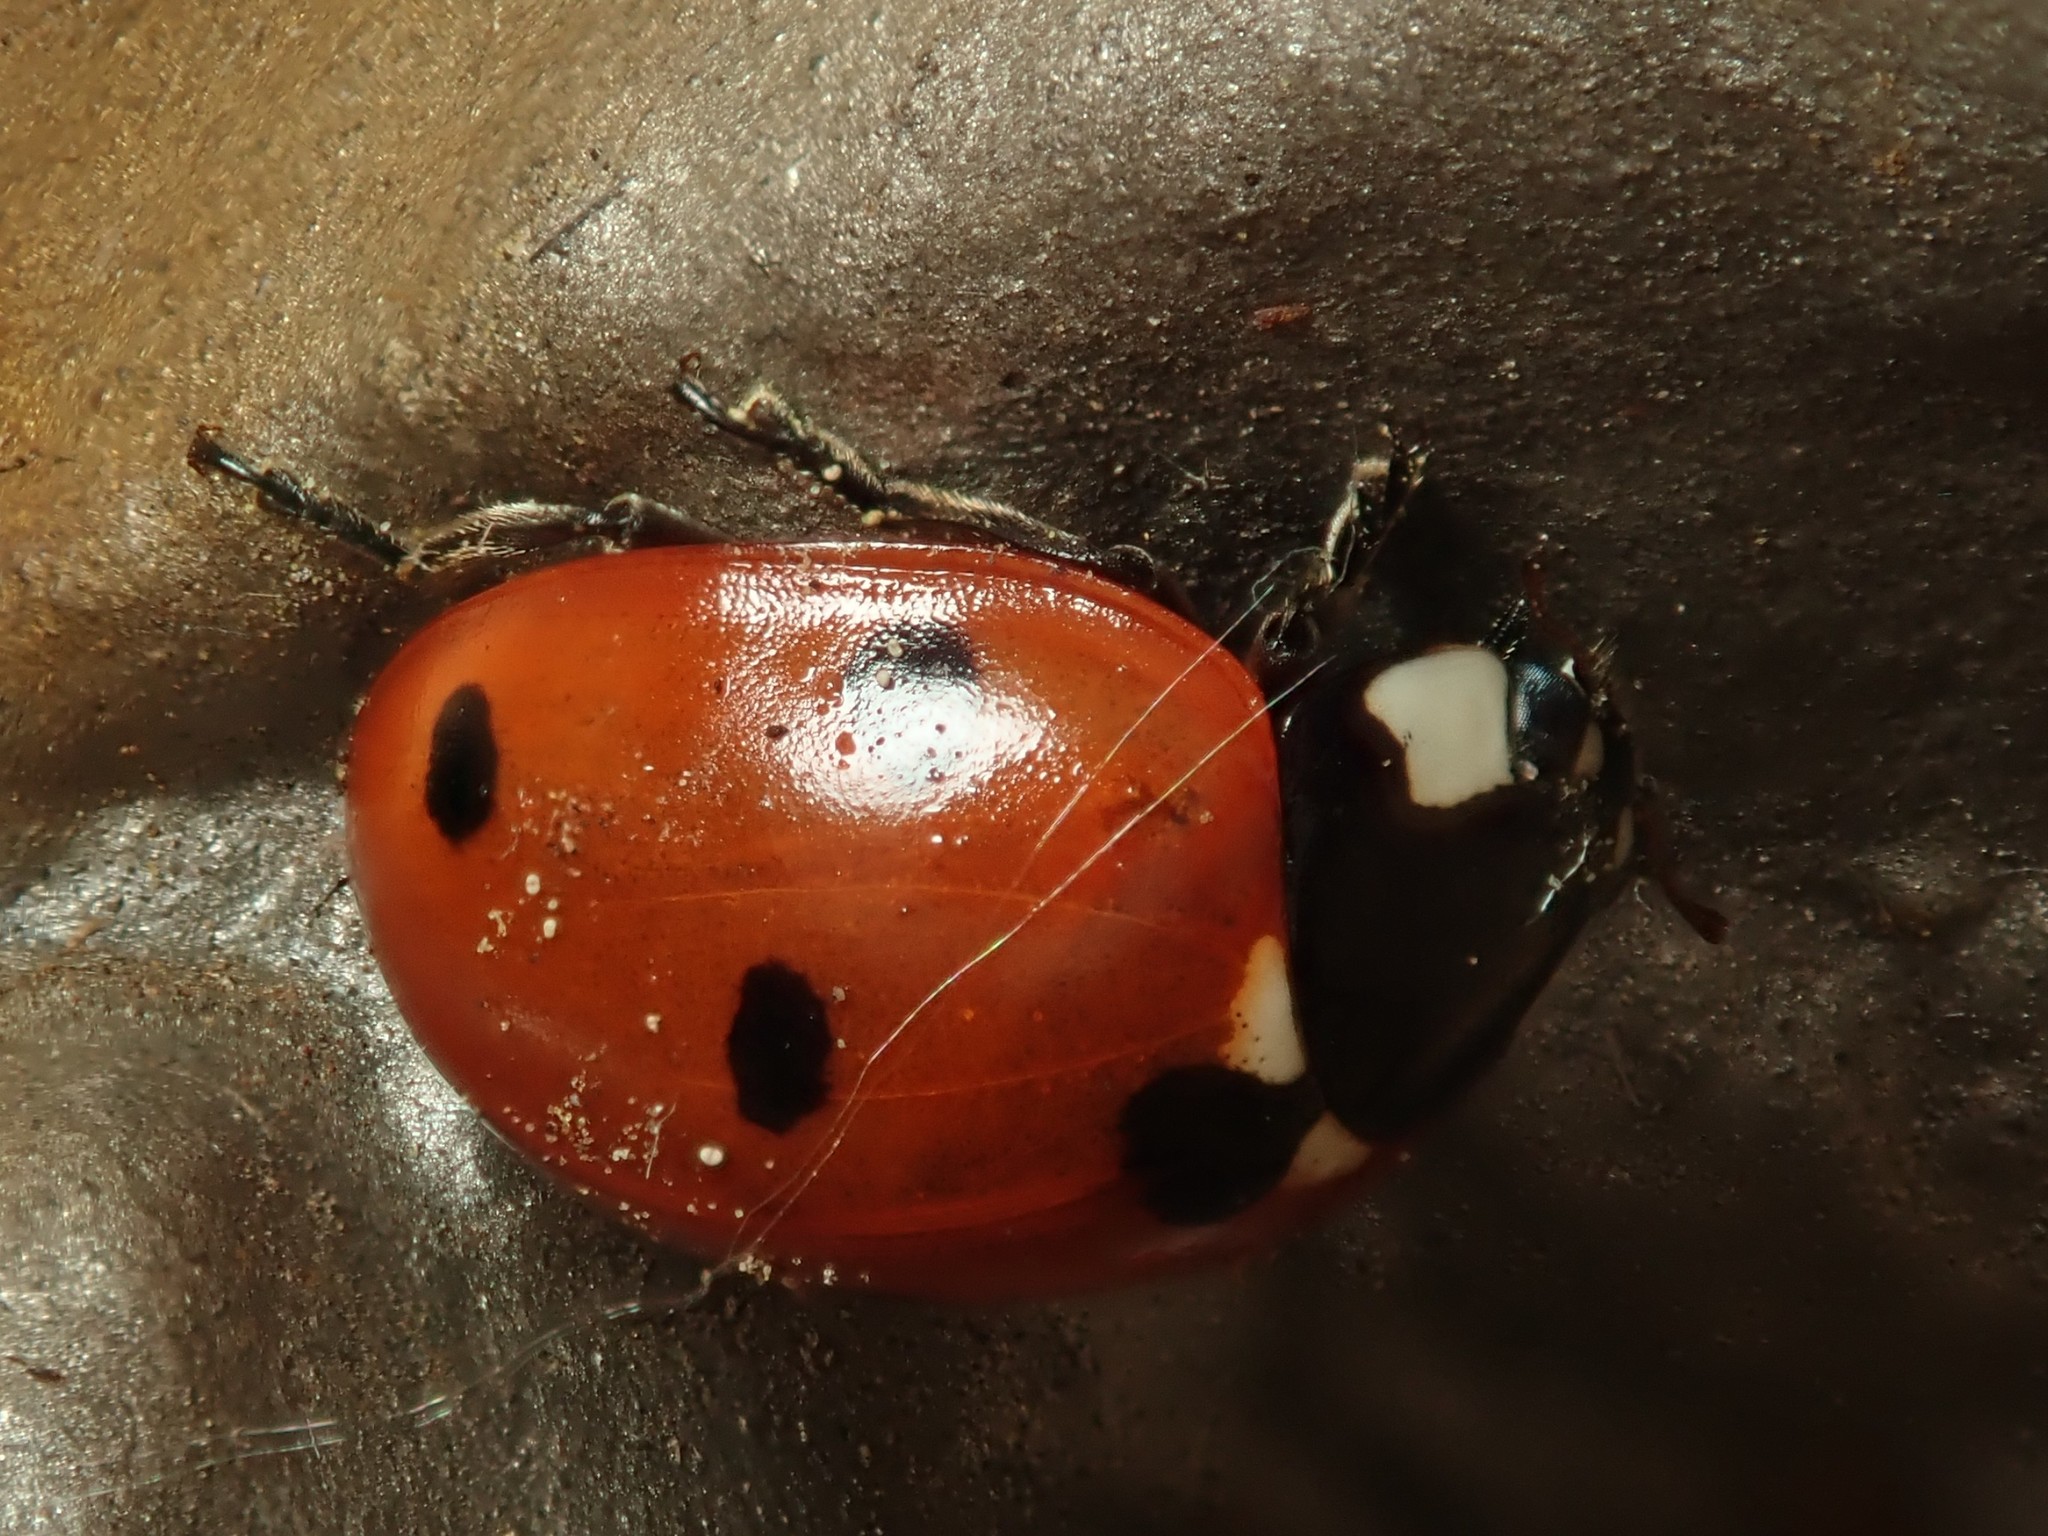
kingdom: Animalia
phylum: Arthropoda
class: Insecta
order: Coleoptera
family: Coccinellidae
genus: Coccinella
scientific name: Coccinella septempunctata
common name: Sevenspotted lady beetle
